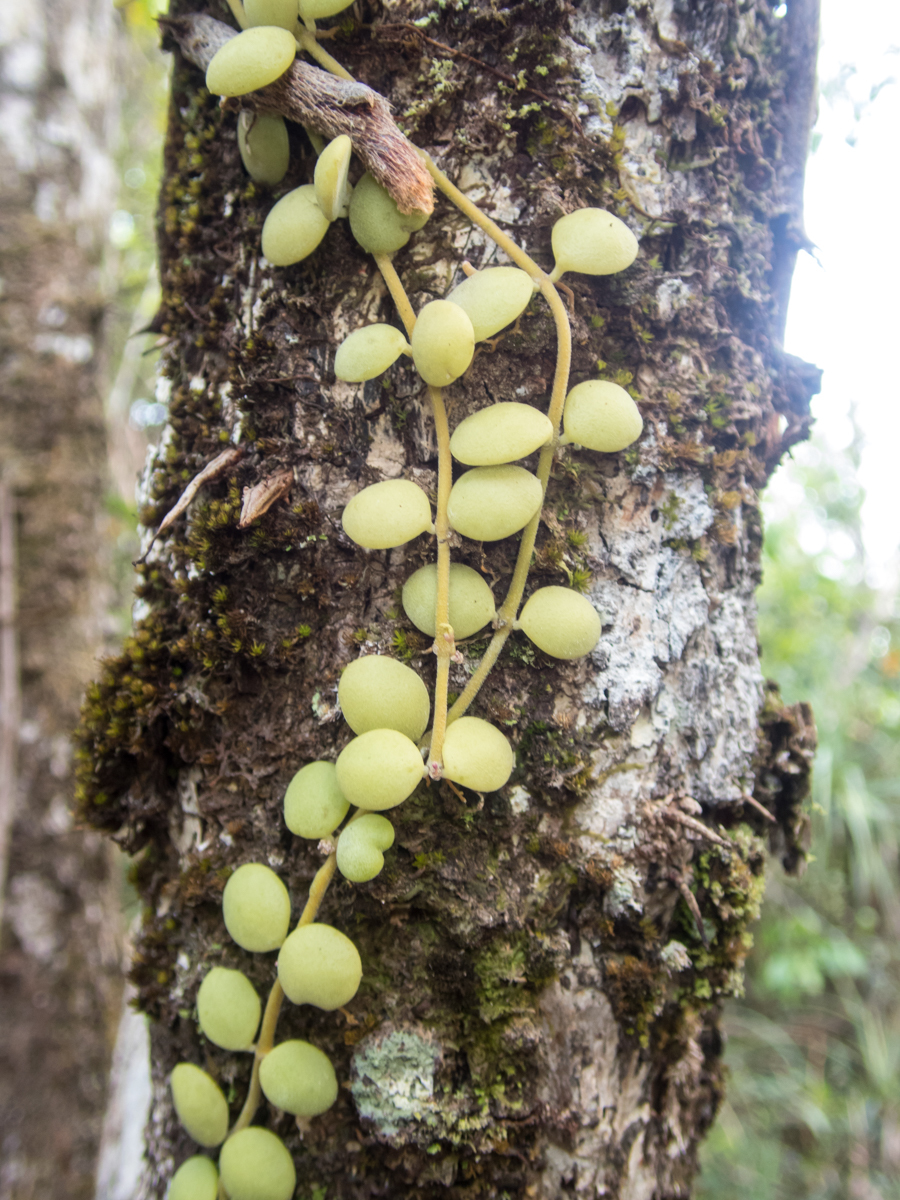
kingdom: Plantae
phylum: Tracheophyta
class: Magnoliopsida
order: Gentianales
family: Apocynaceae
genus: Dischidia
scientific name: Dischidia nummularia
